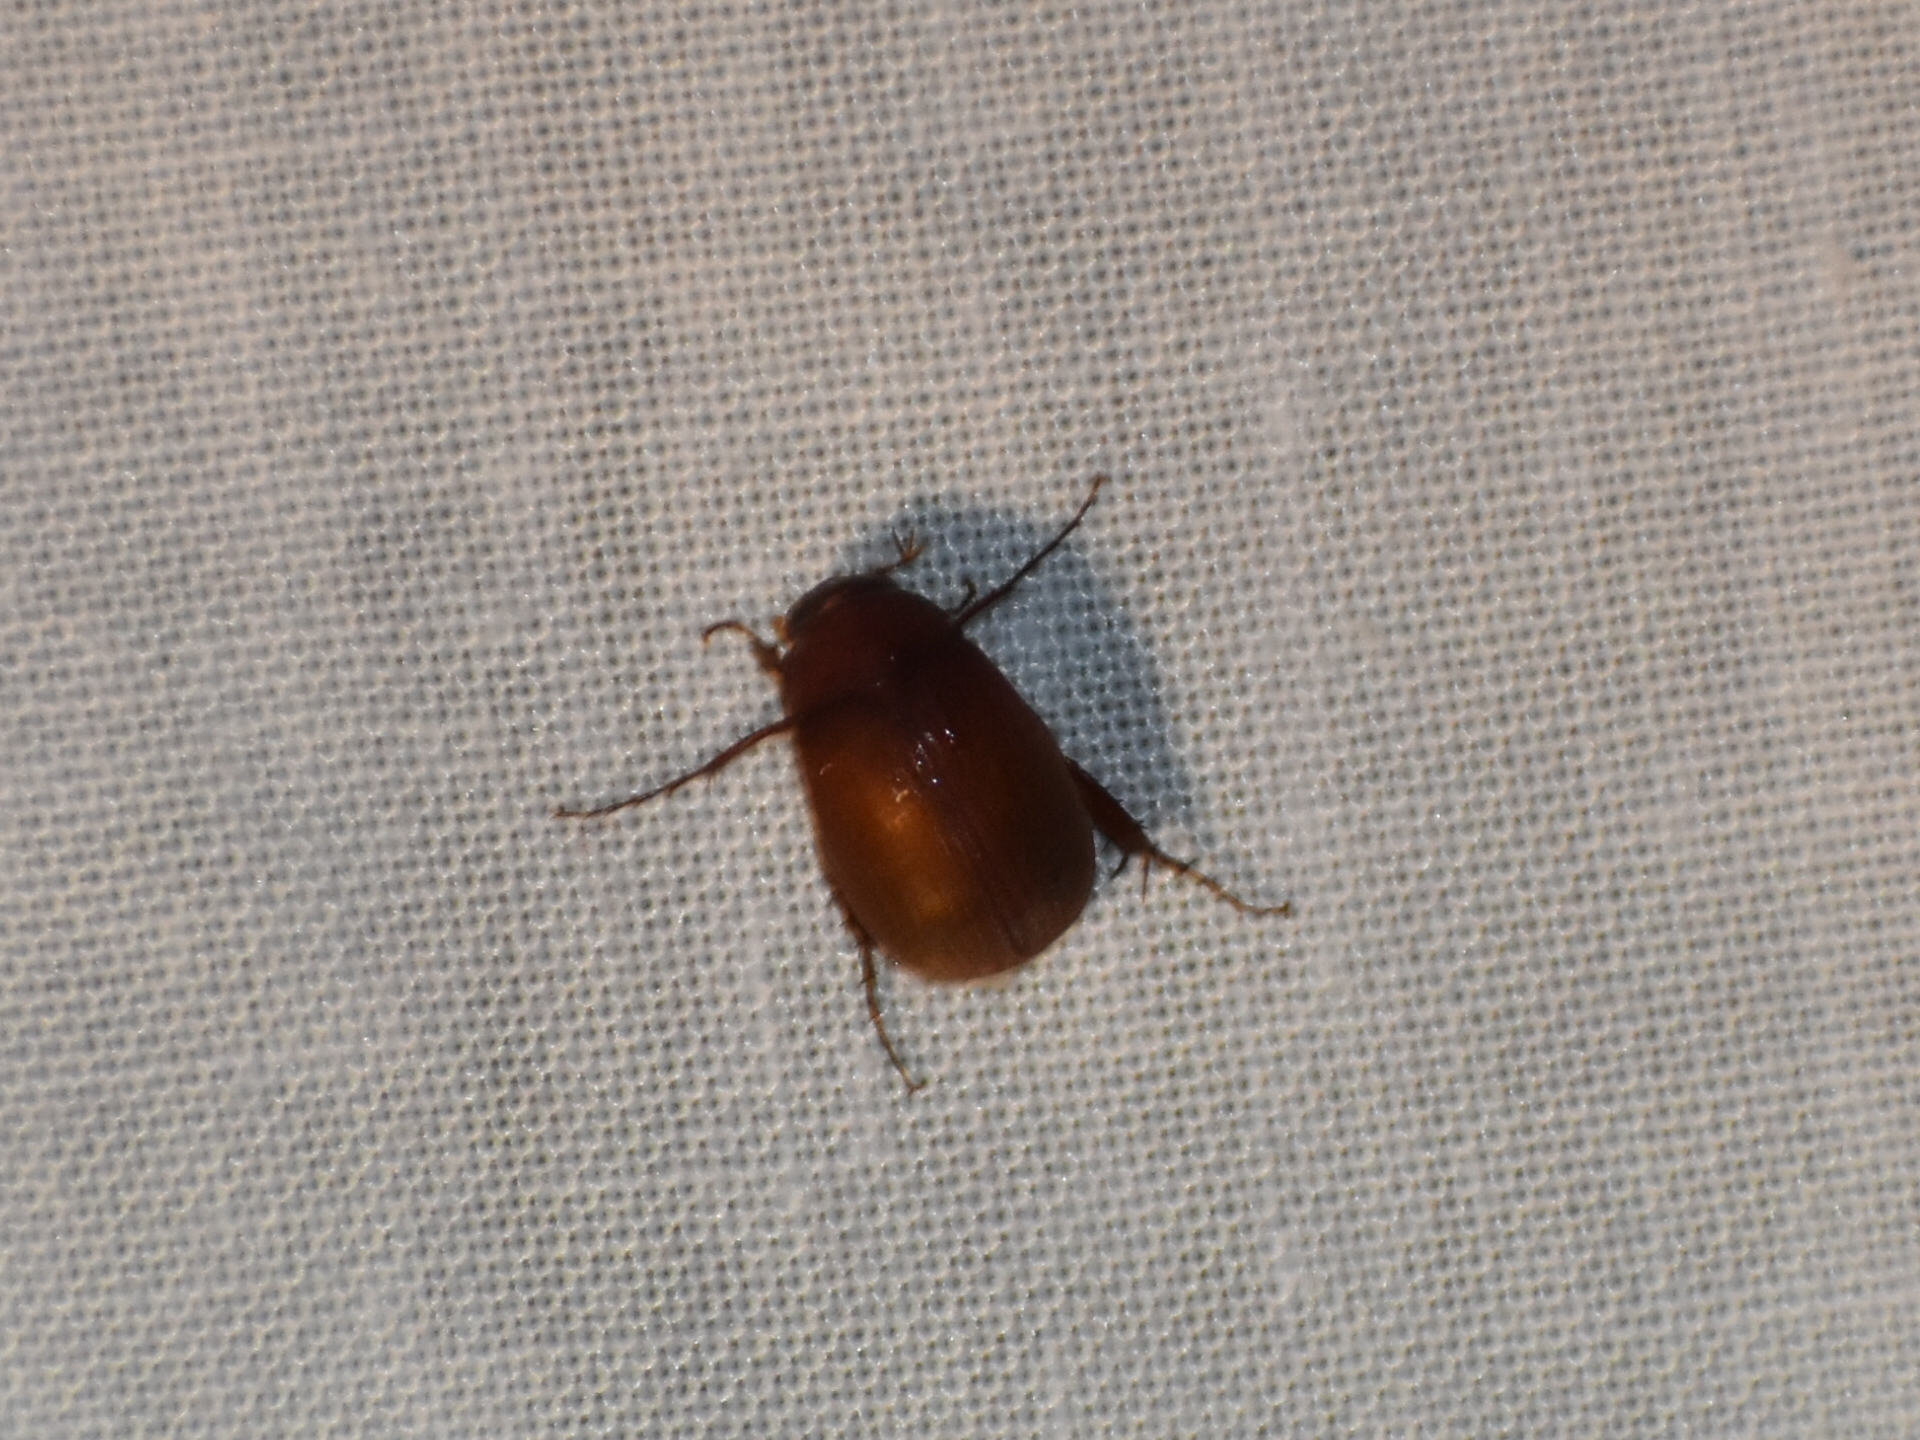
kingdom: Animalia
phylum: Arthropoda
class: Insecta
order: Coleoptera
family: Scarabaeidae
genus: Maladera
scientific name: Maladera formosae
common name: Asiatic garden beetle
